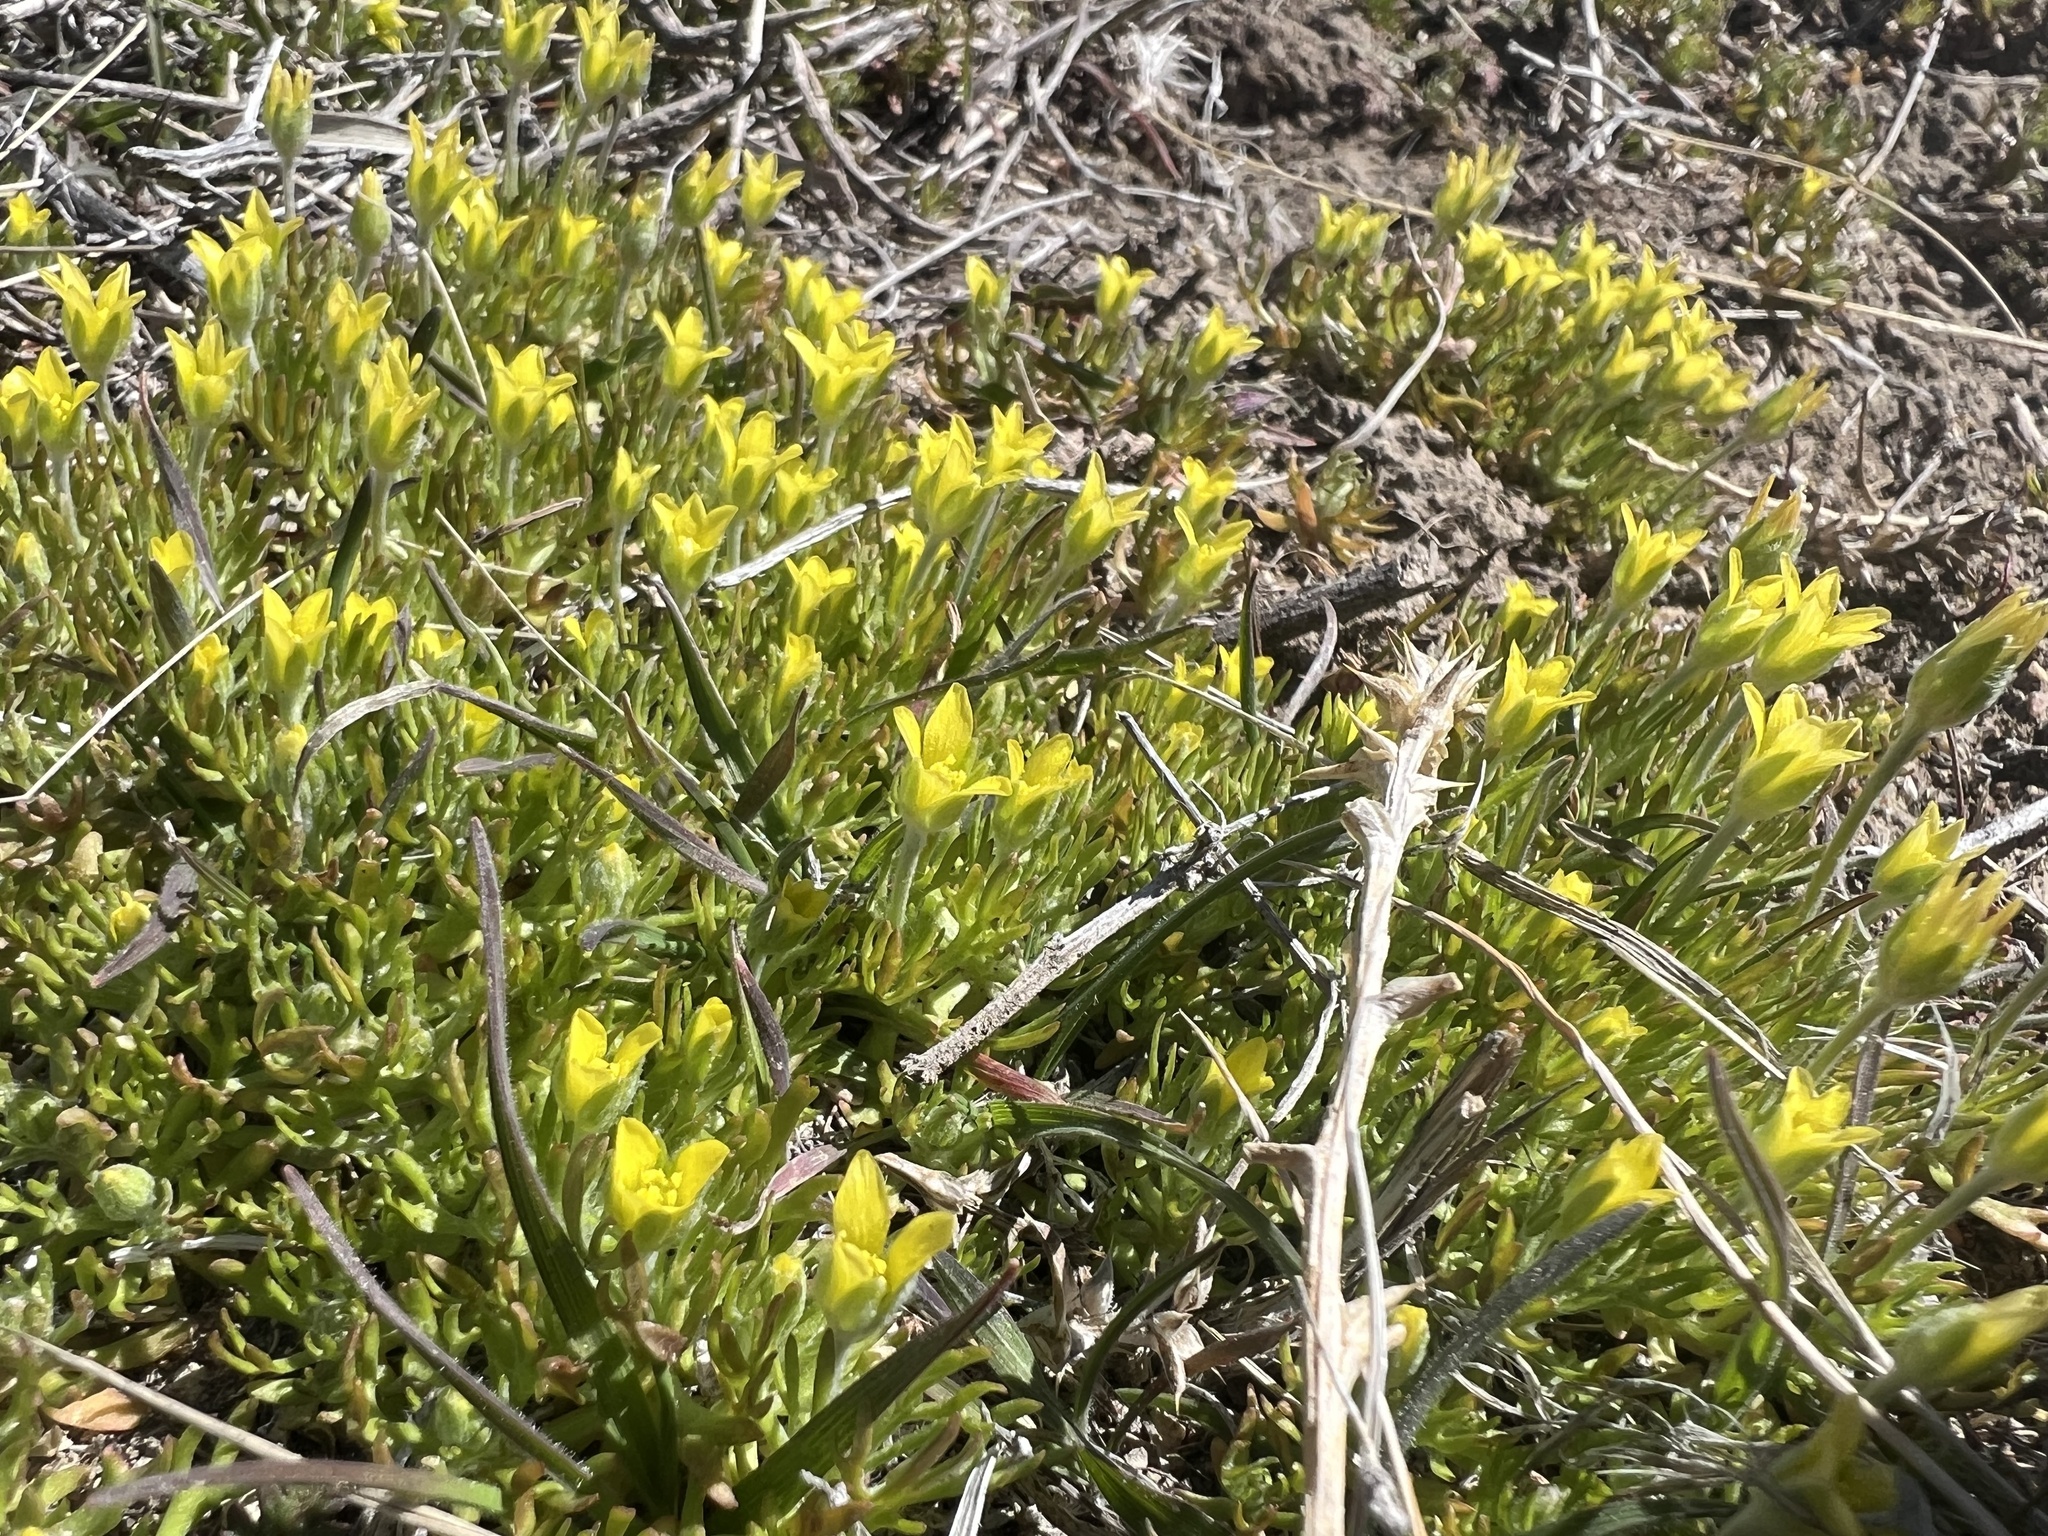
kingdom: Plantae
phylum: Tracheophyta
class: Magnoliopsida
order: Ranunculales
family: Ranunculaceae
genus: Ceratocephala
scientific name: Ceratocephala orthoceras
